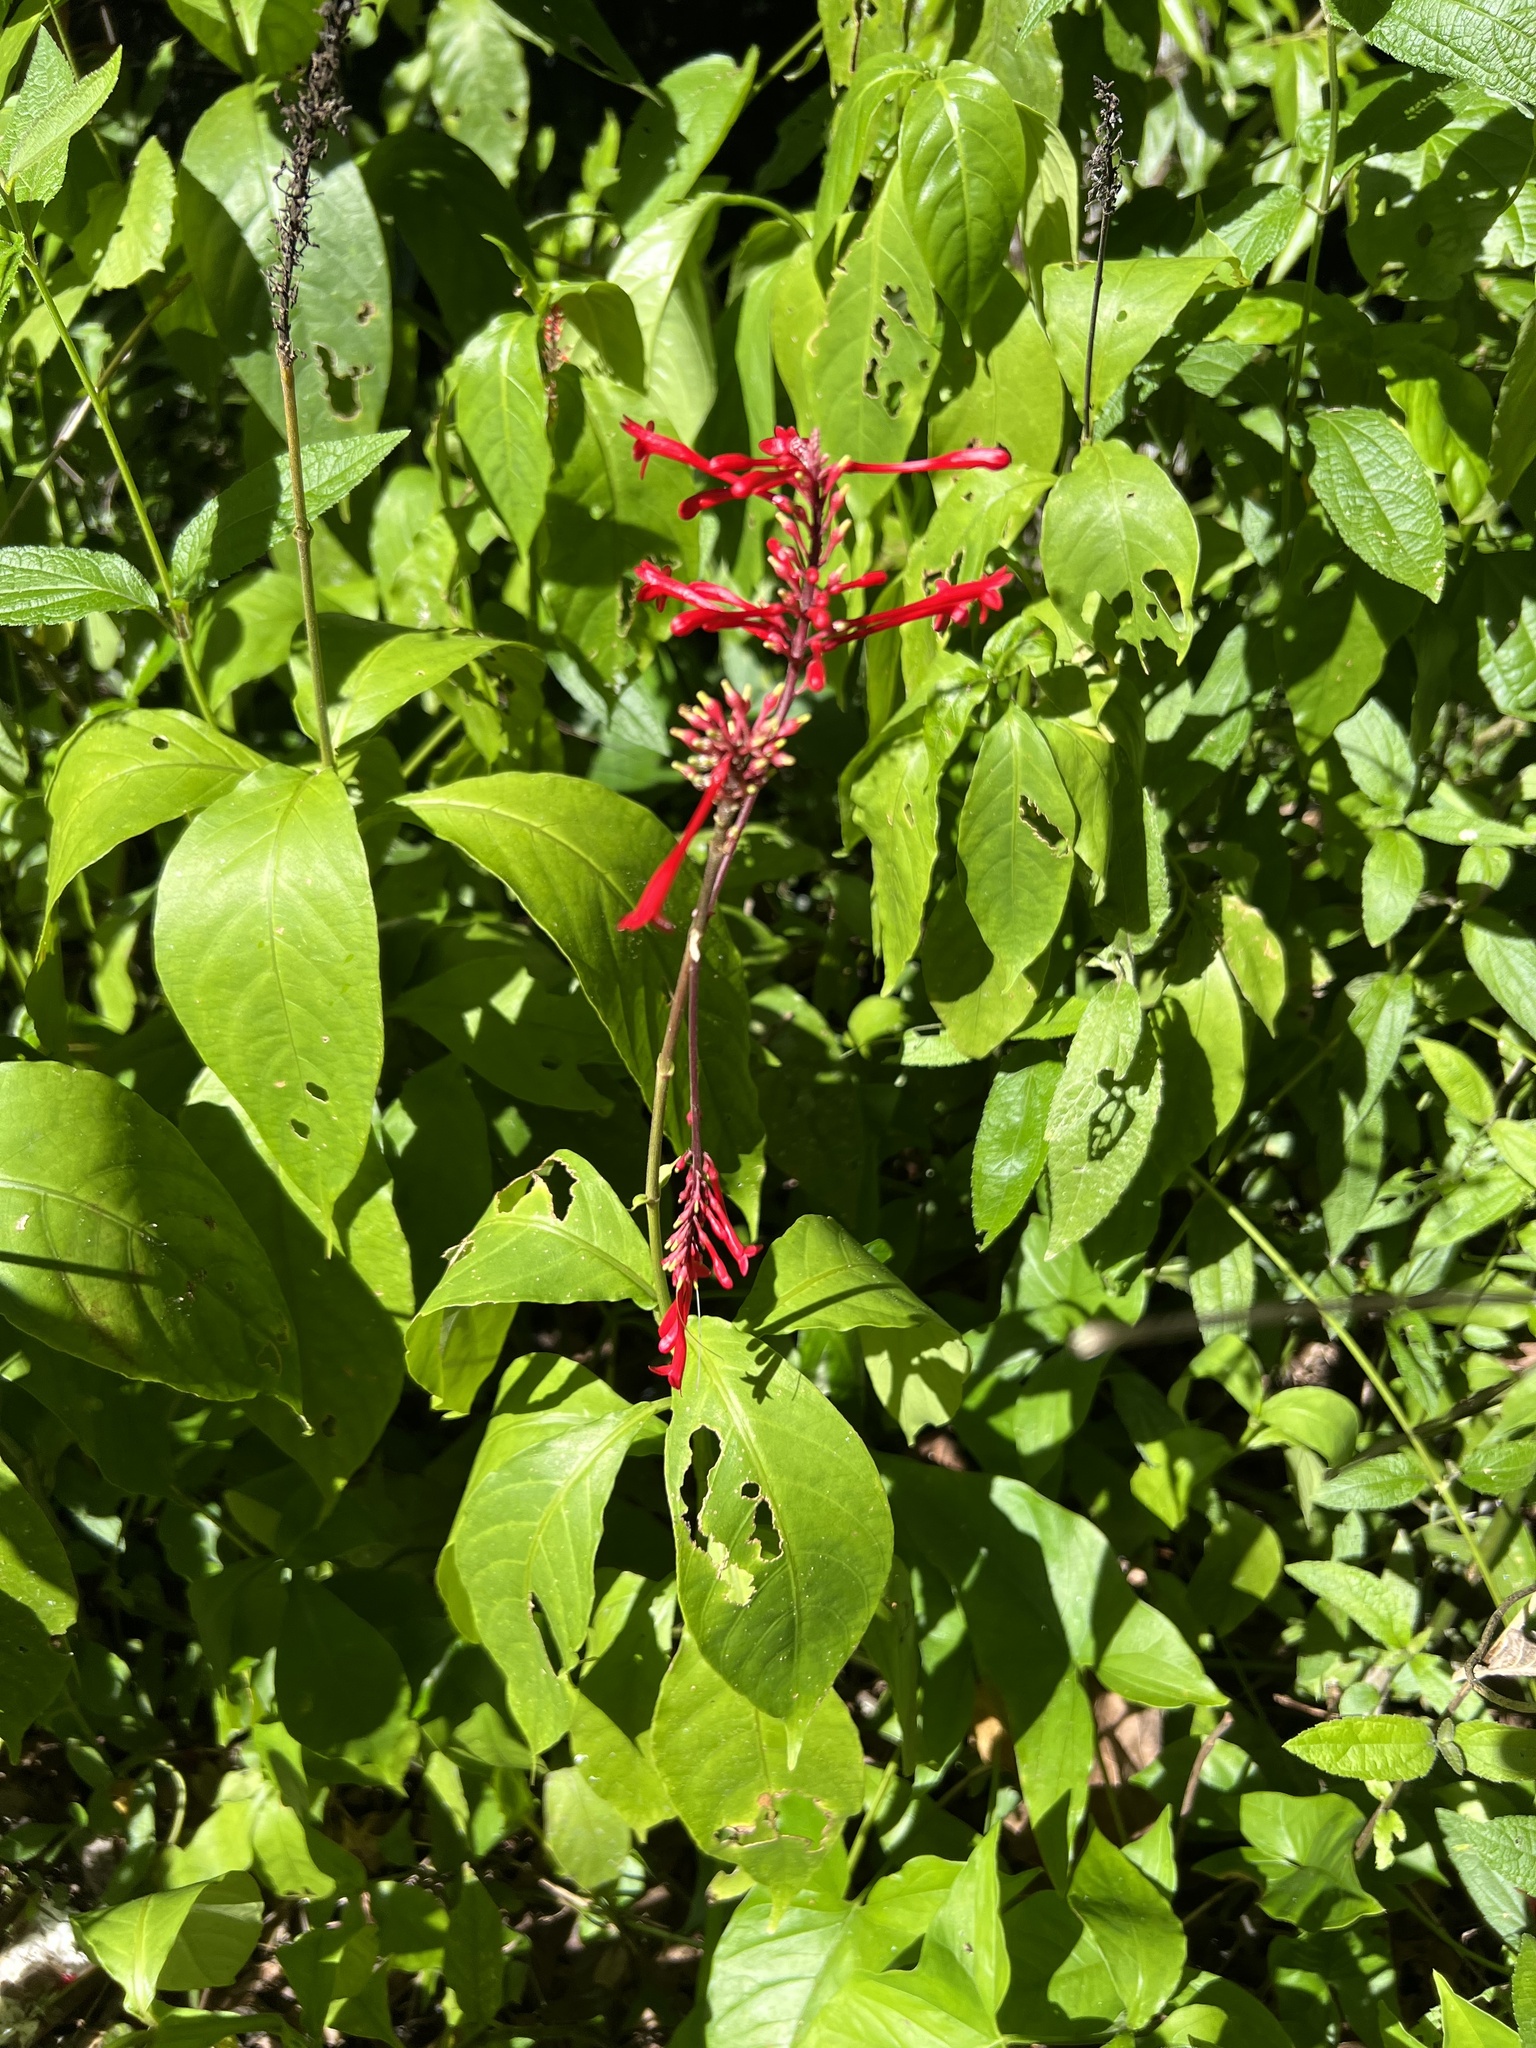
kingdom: Plantae
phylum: Tracheophyta
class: Magnoliopsida
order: Lamiales
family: Acanthaceae
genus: Odontonema
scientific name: Odontonema cuspidatum
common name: Mottled toothedthread
